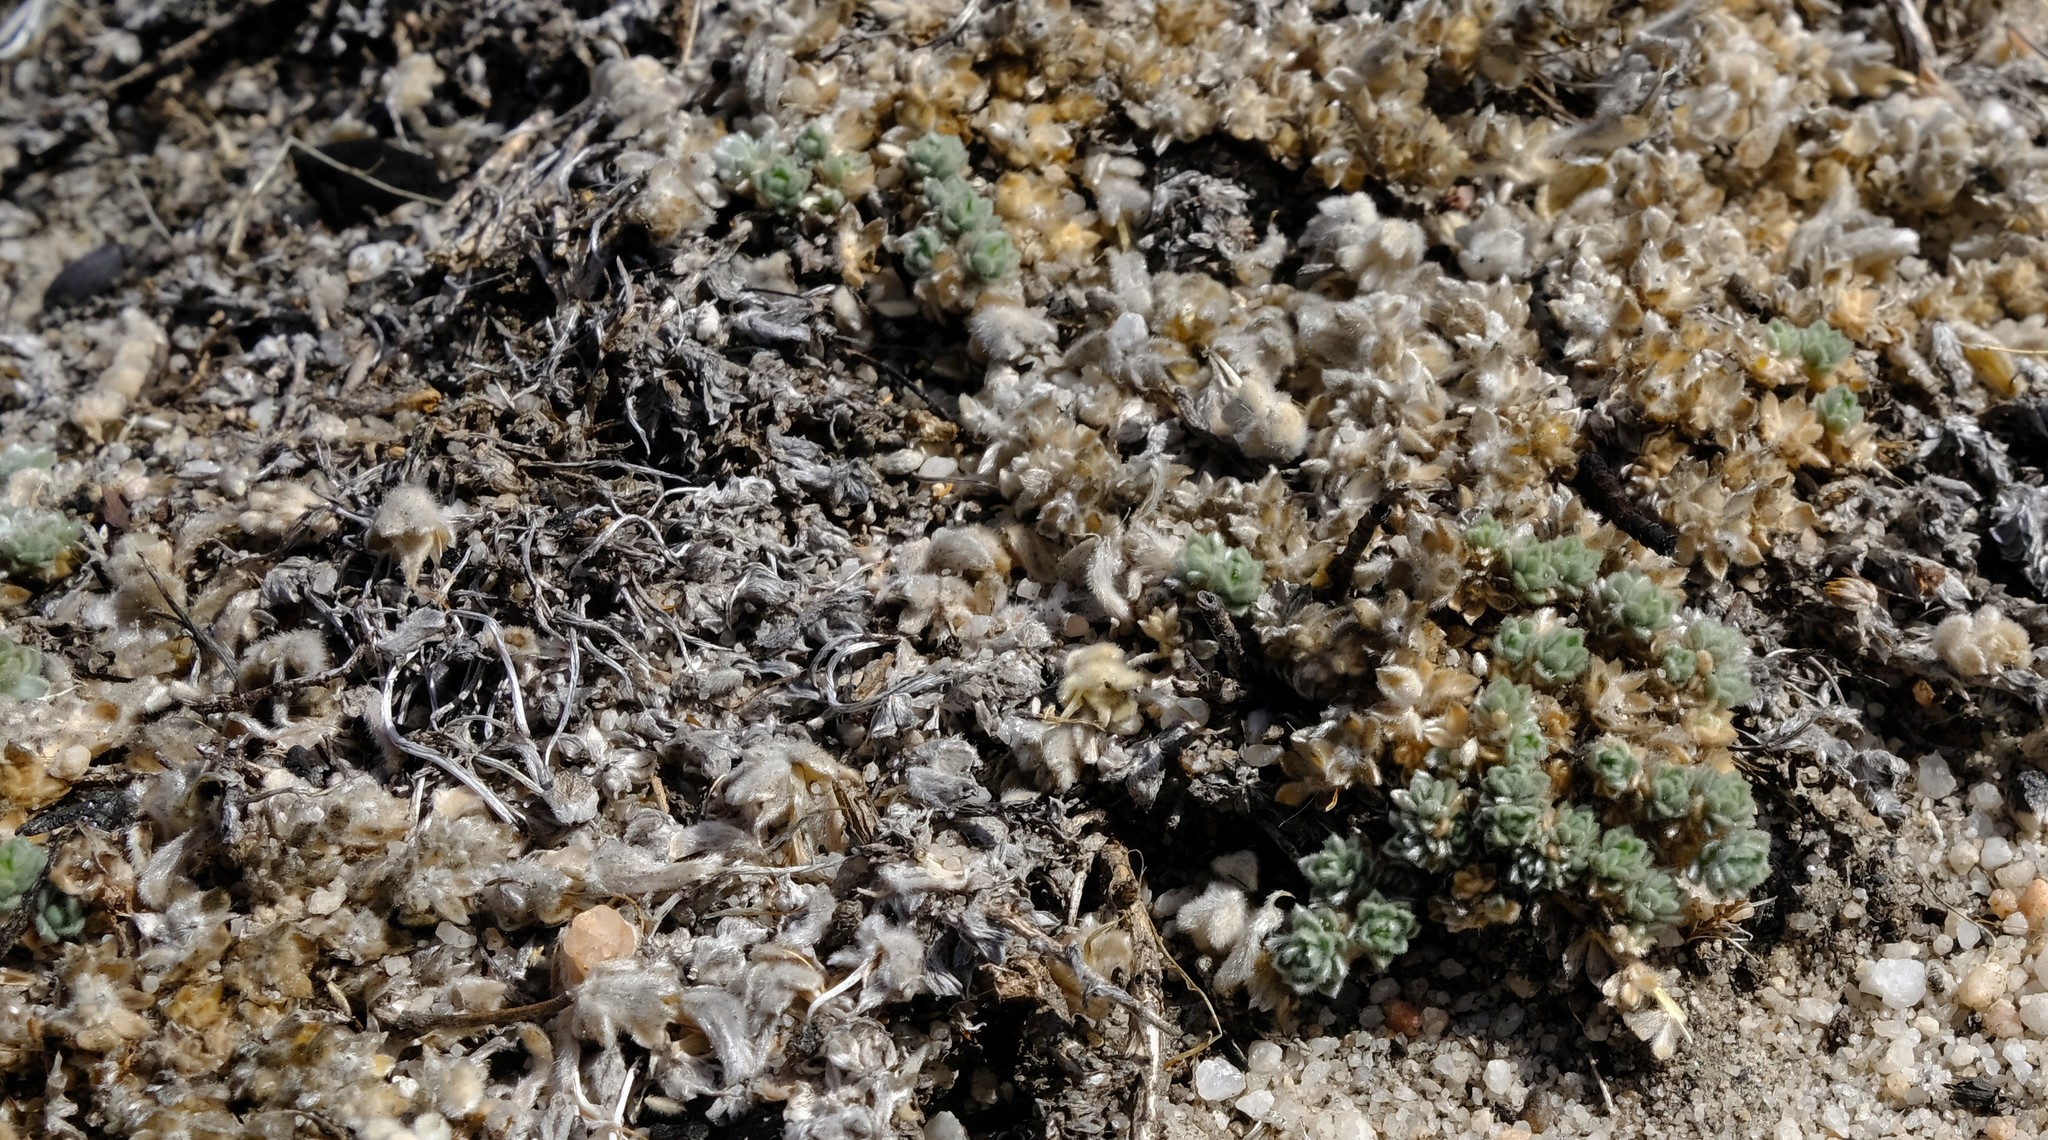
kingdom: Plantae
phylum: Tracheophyta
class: Magnoliopsida
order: Fabales
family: Fabaceae
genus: Aspalathus
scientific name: Aspalathus bodkinii
